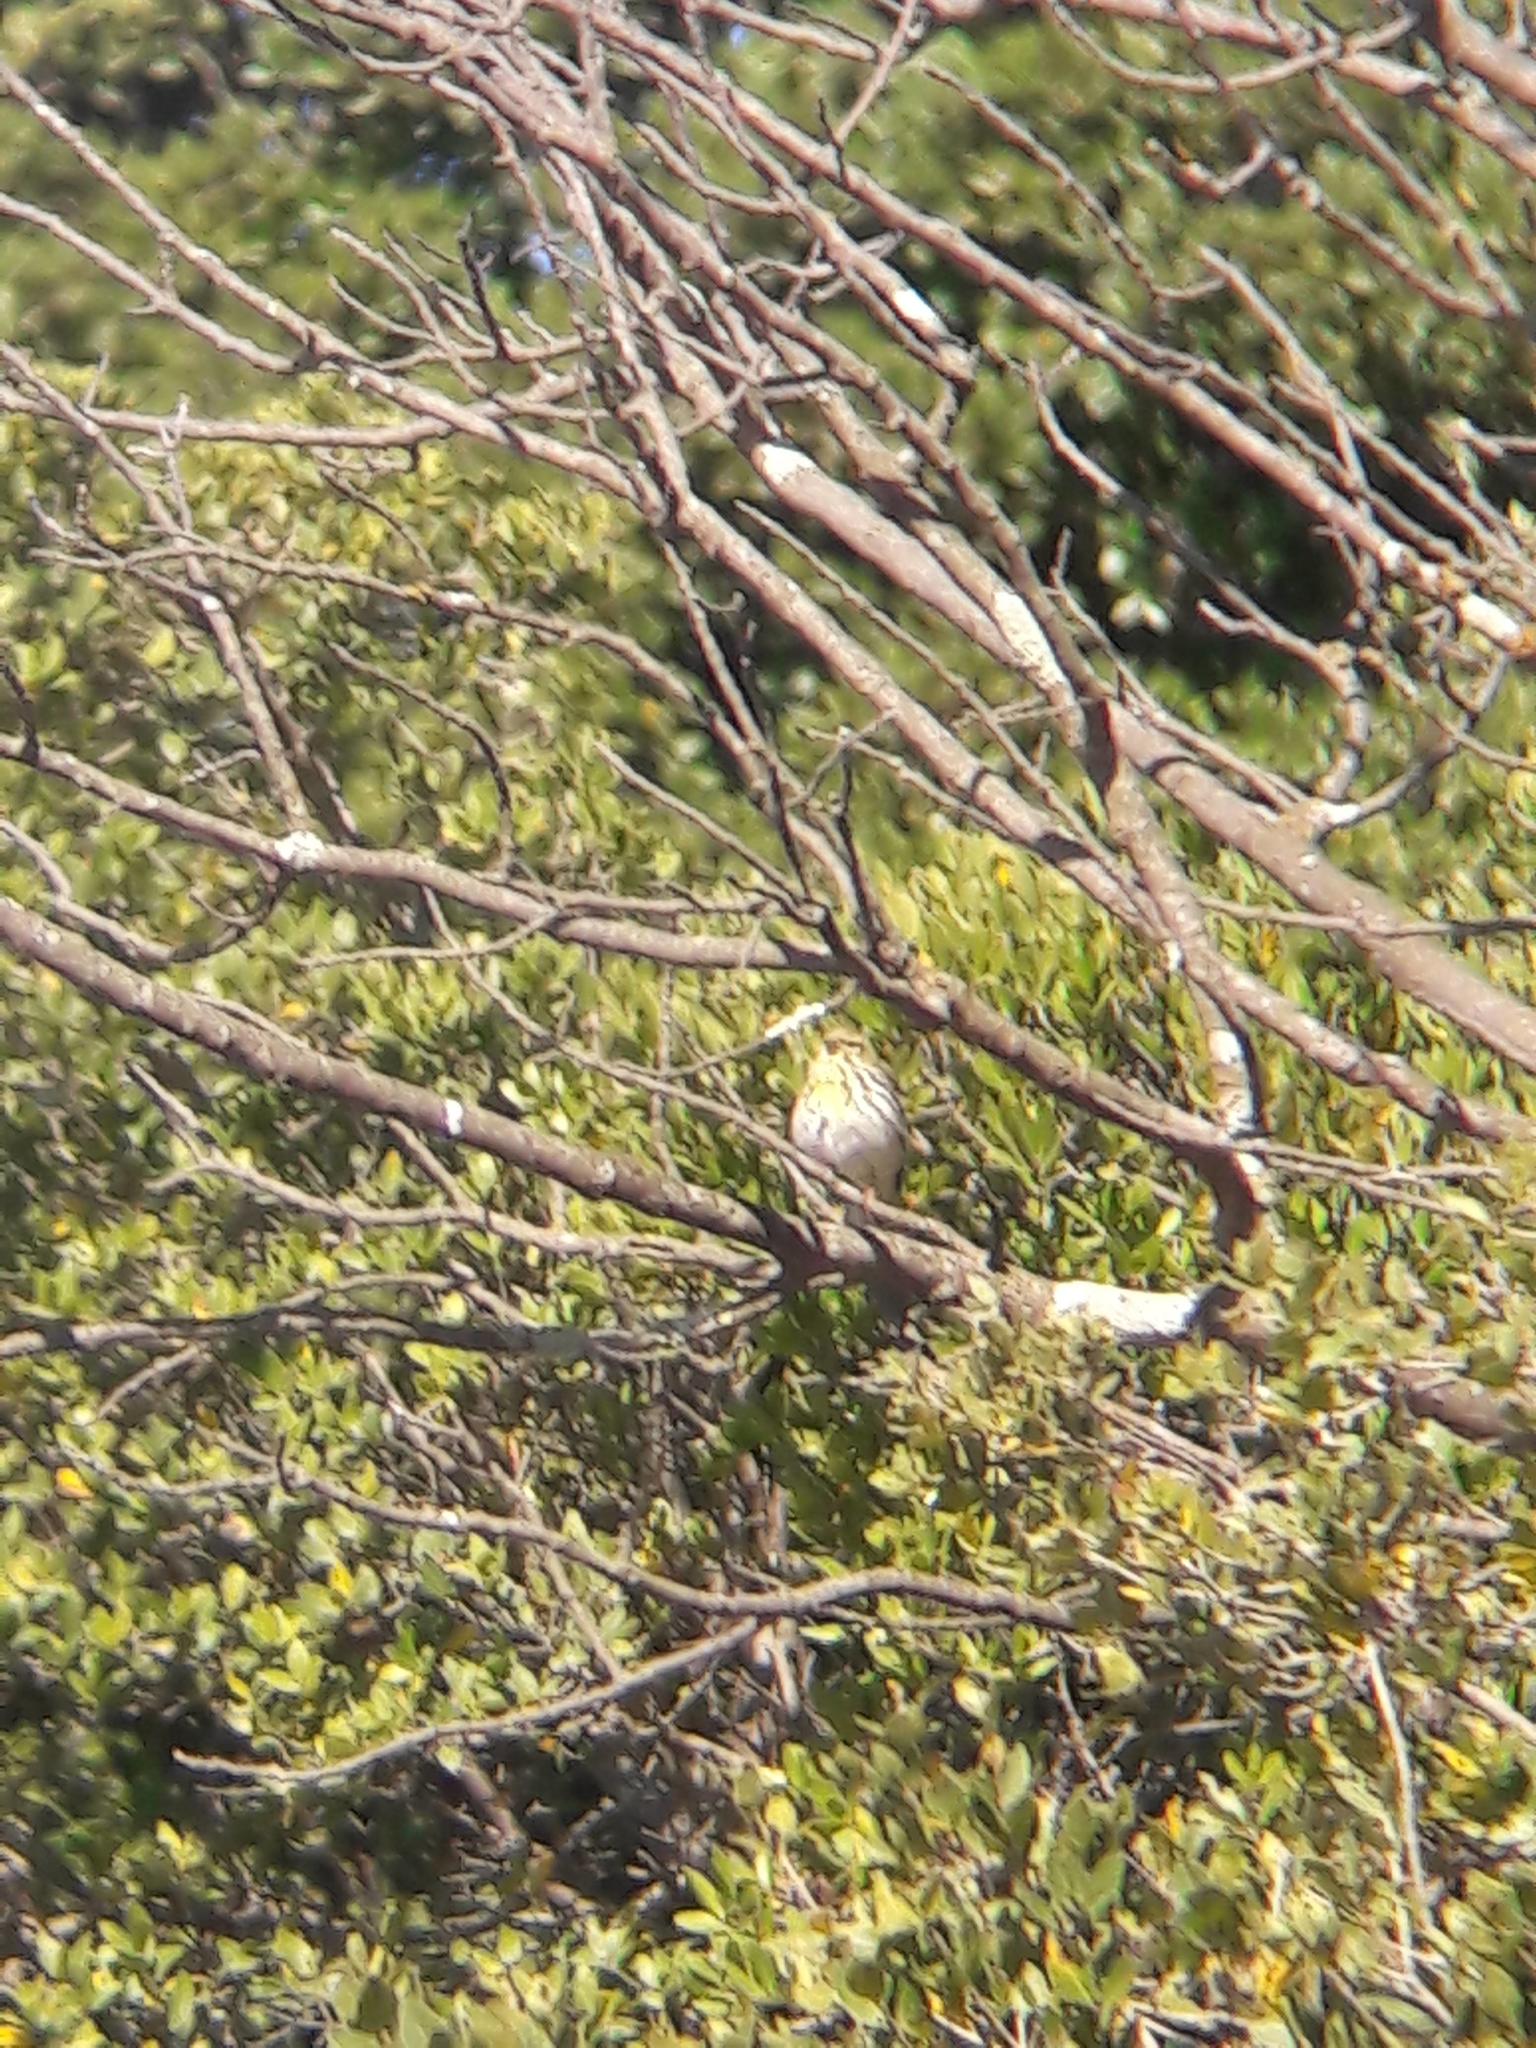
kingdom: Animalia
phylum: Chordata
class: Aves
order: Passeriformes
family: Fringillidae
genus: Serinus
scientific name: Serinus serinus
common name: European serin
